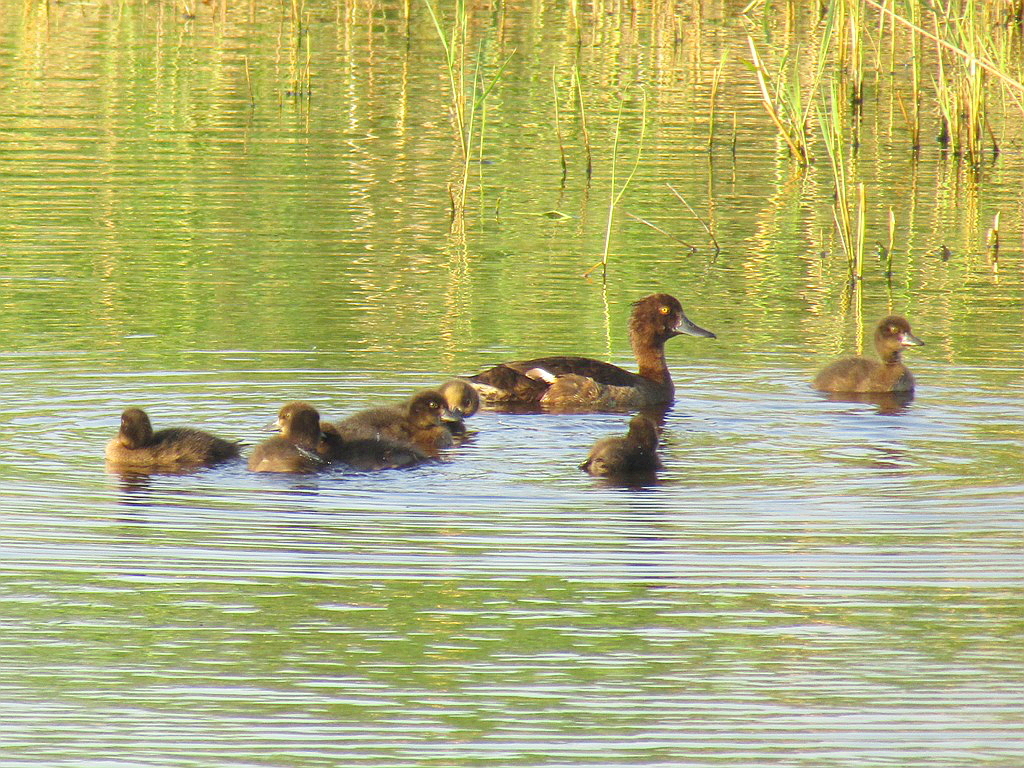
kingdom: Animalia
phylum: Chordata
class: Aves
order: Anseriformes
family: Anatidae
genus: Aythya
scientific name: Aythya fuligula
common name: Tufted duck
